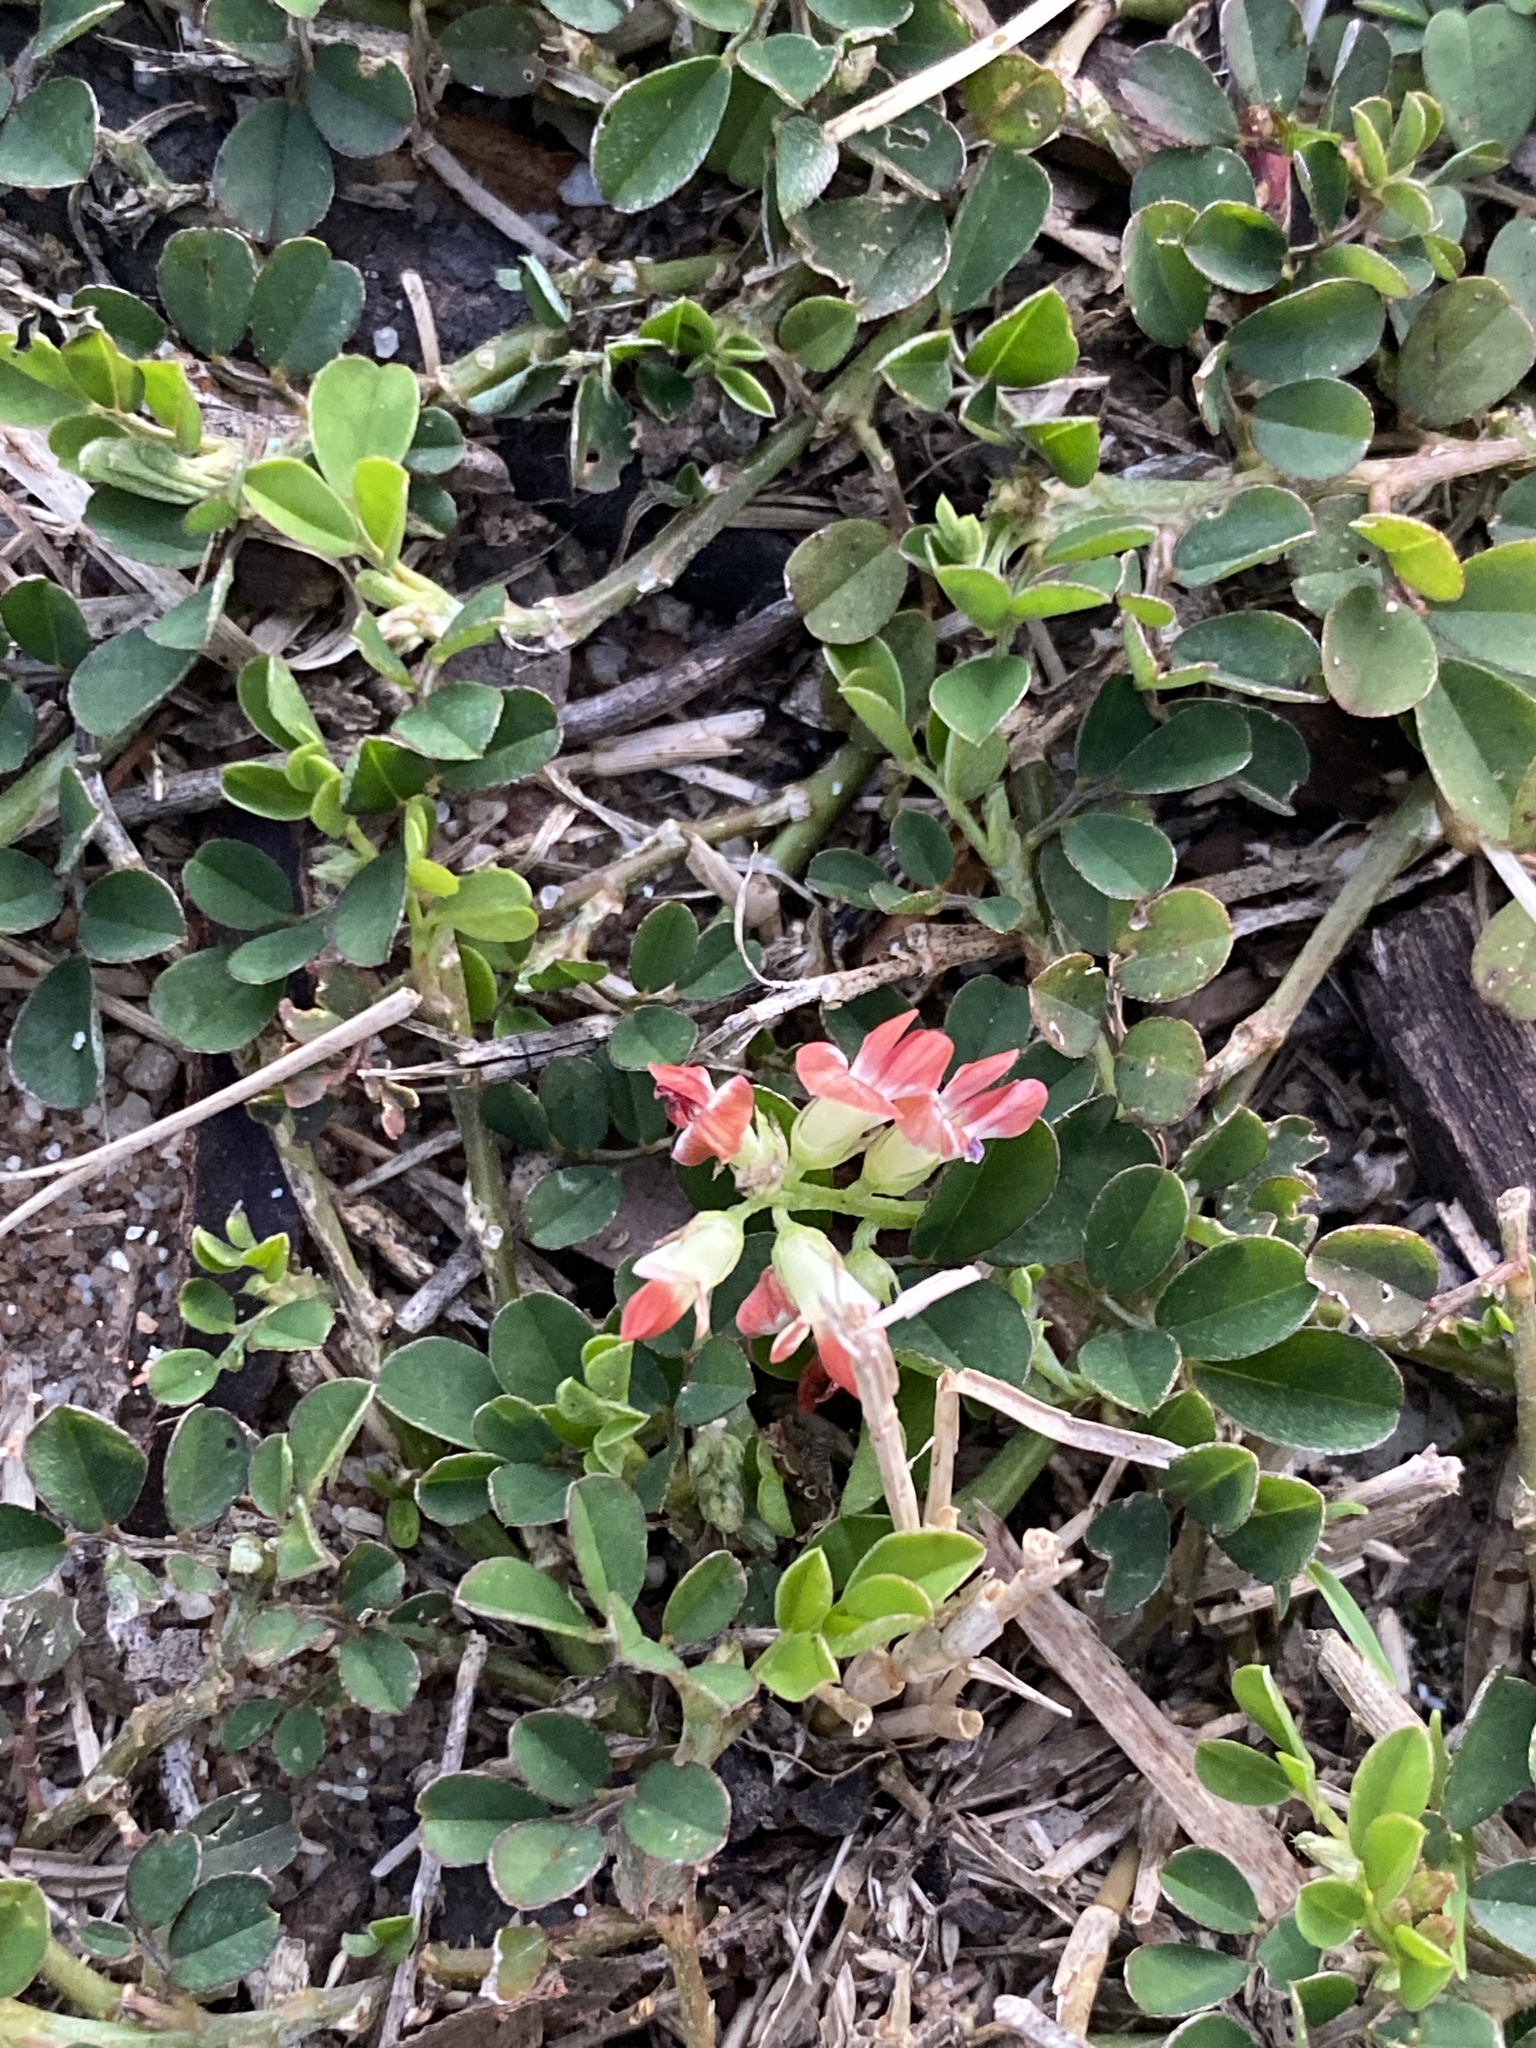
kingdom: Plantae
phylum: Tracheophyta
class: Magnoliopsida
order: Fabales
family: Fabaceae
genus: Indigofera
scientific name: Indigofera spicata
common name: Creeping indigo
